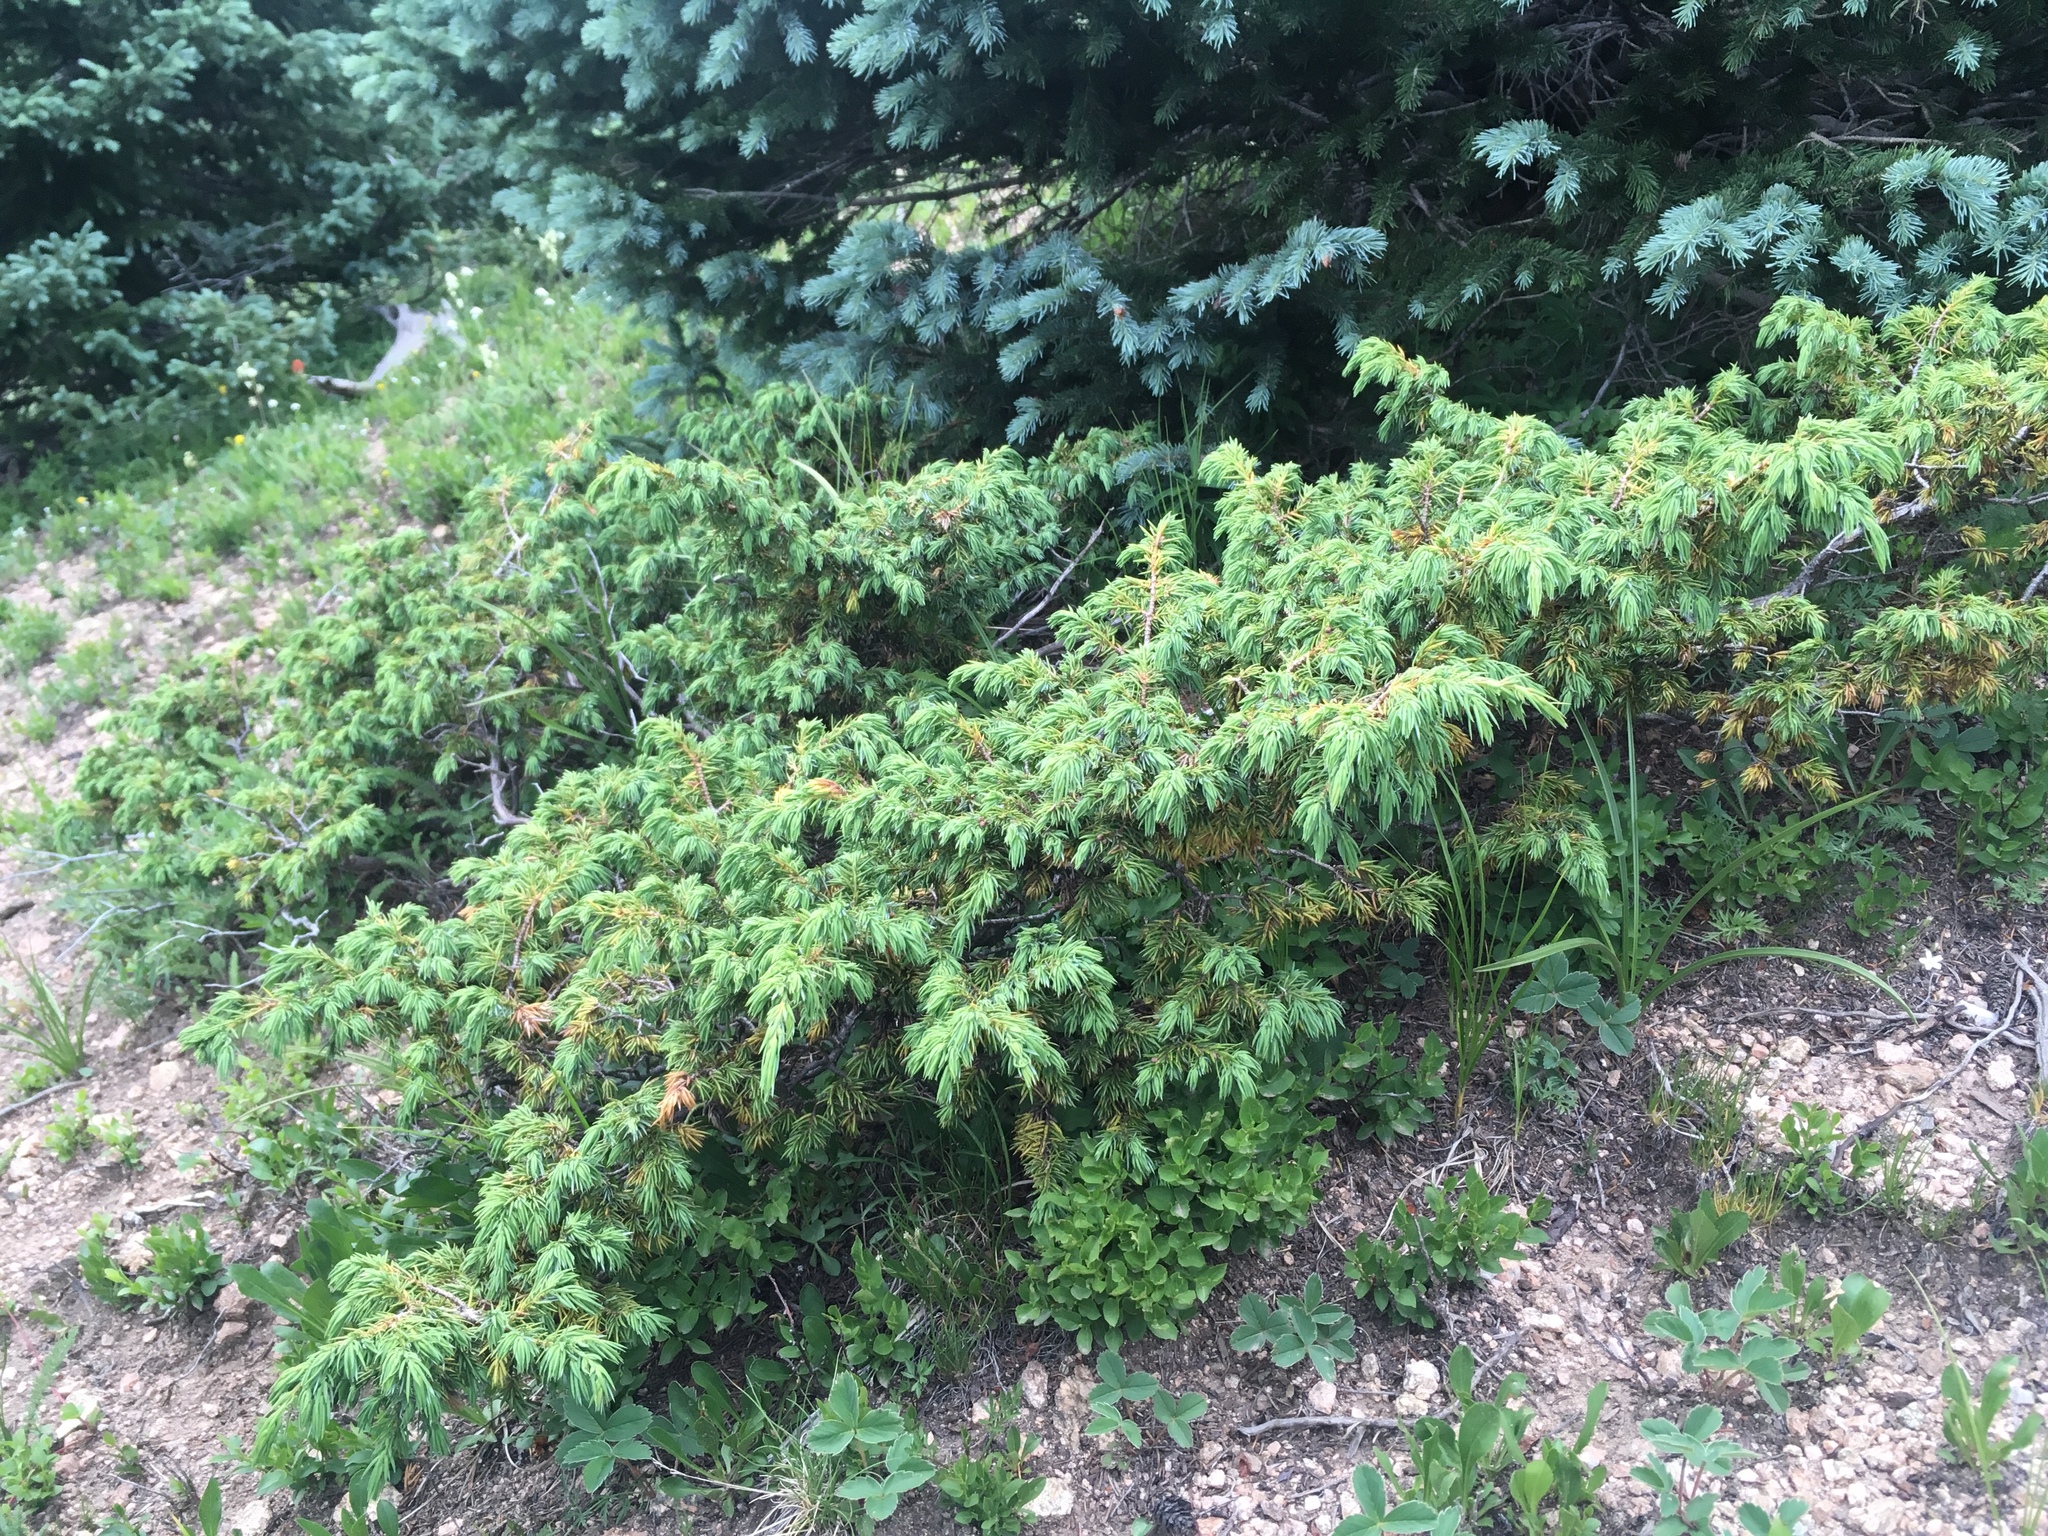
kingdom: Plantae
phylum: Tracheophyta
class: Pinopsida
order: Pinales
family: Cupressaceae
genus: Juniperus
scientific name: Juniperus communis
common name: Common juniper
